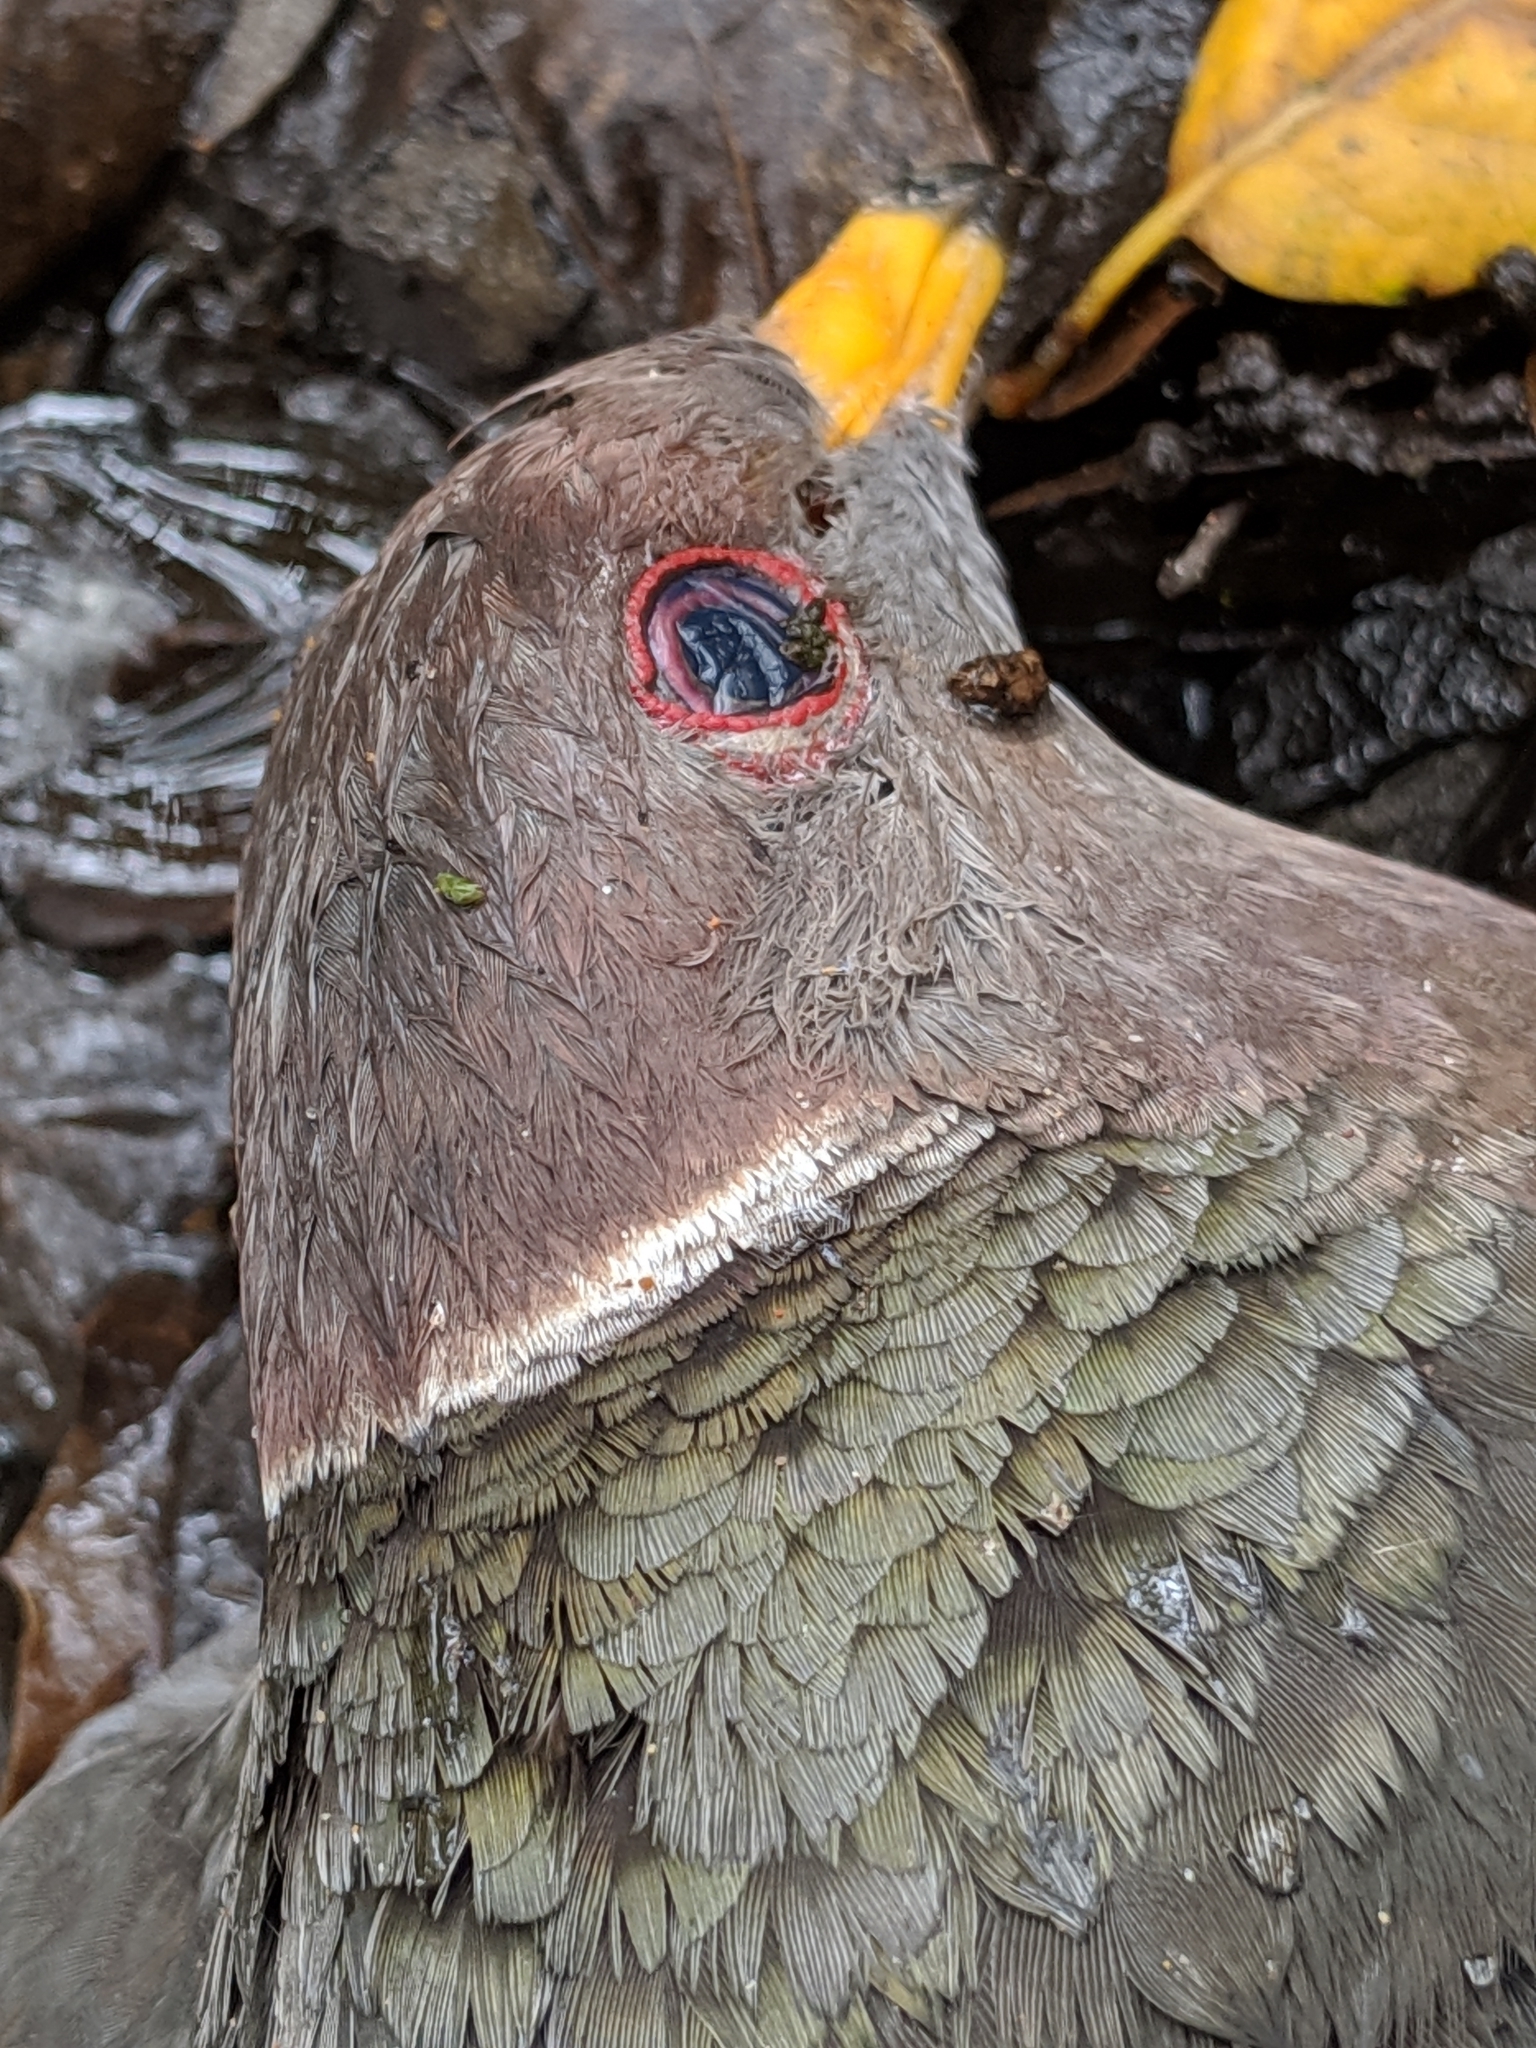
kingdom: Animalia
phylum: Chordata
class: Aves
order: Columbiformes
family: Columbidae
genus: Patagioenas
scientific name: Patagioenas fasciata
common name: Band-tailed pigeon
